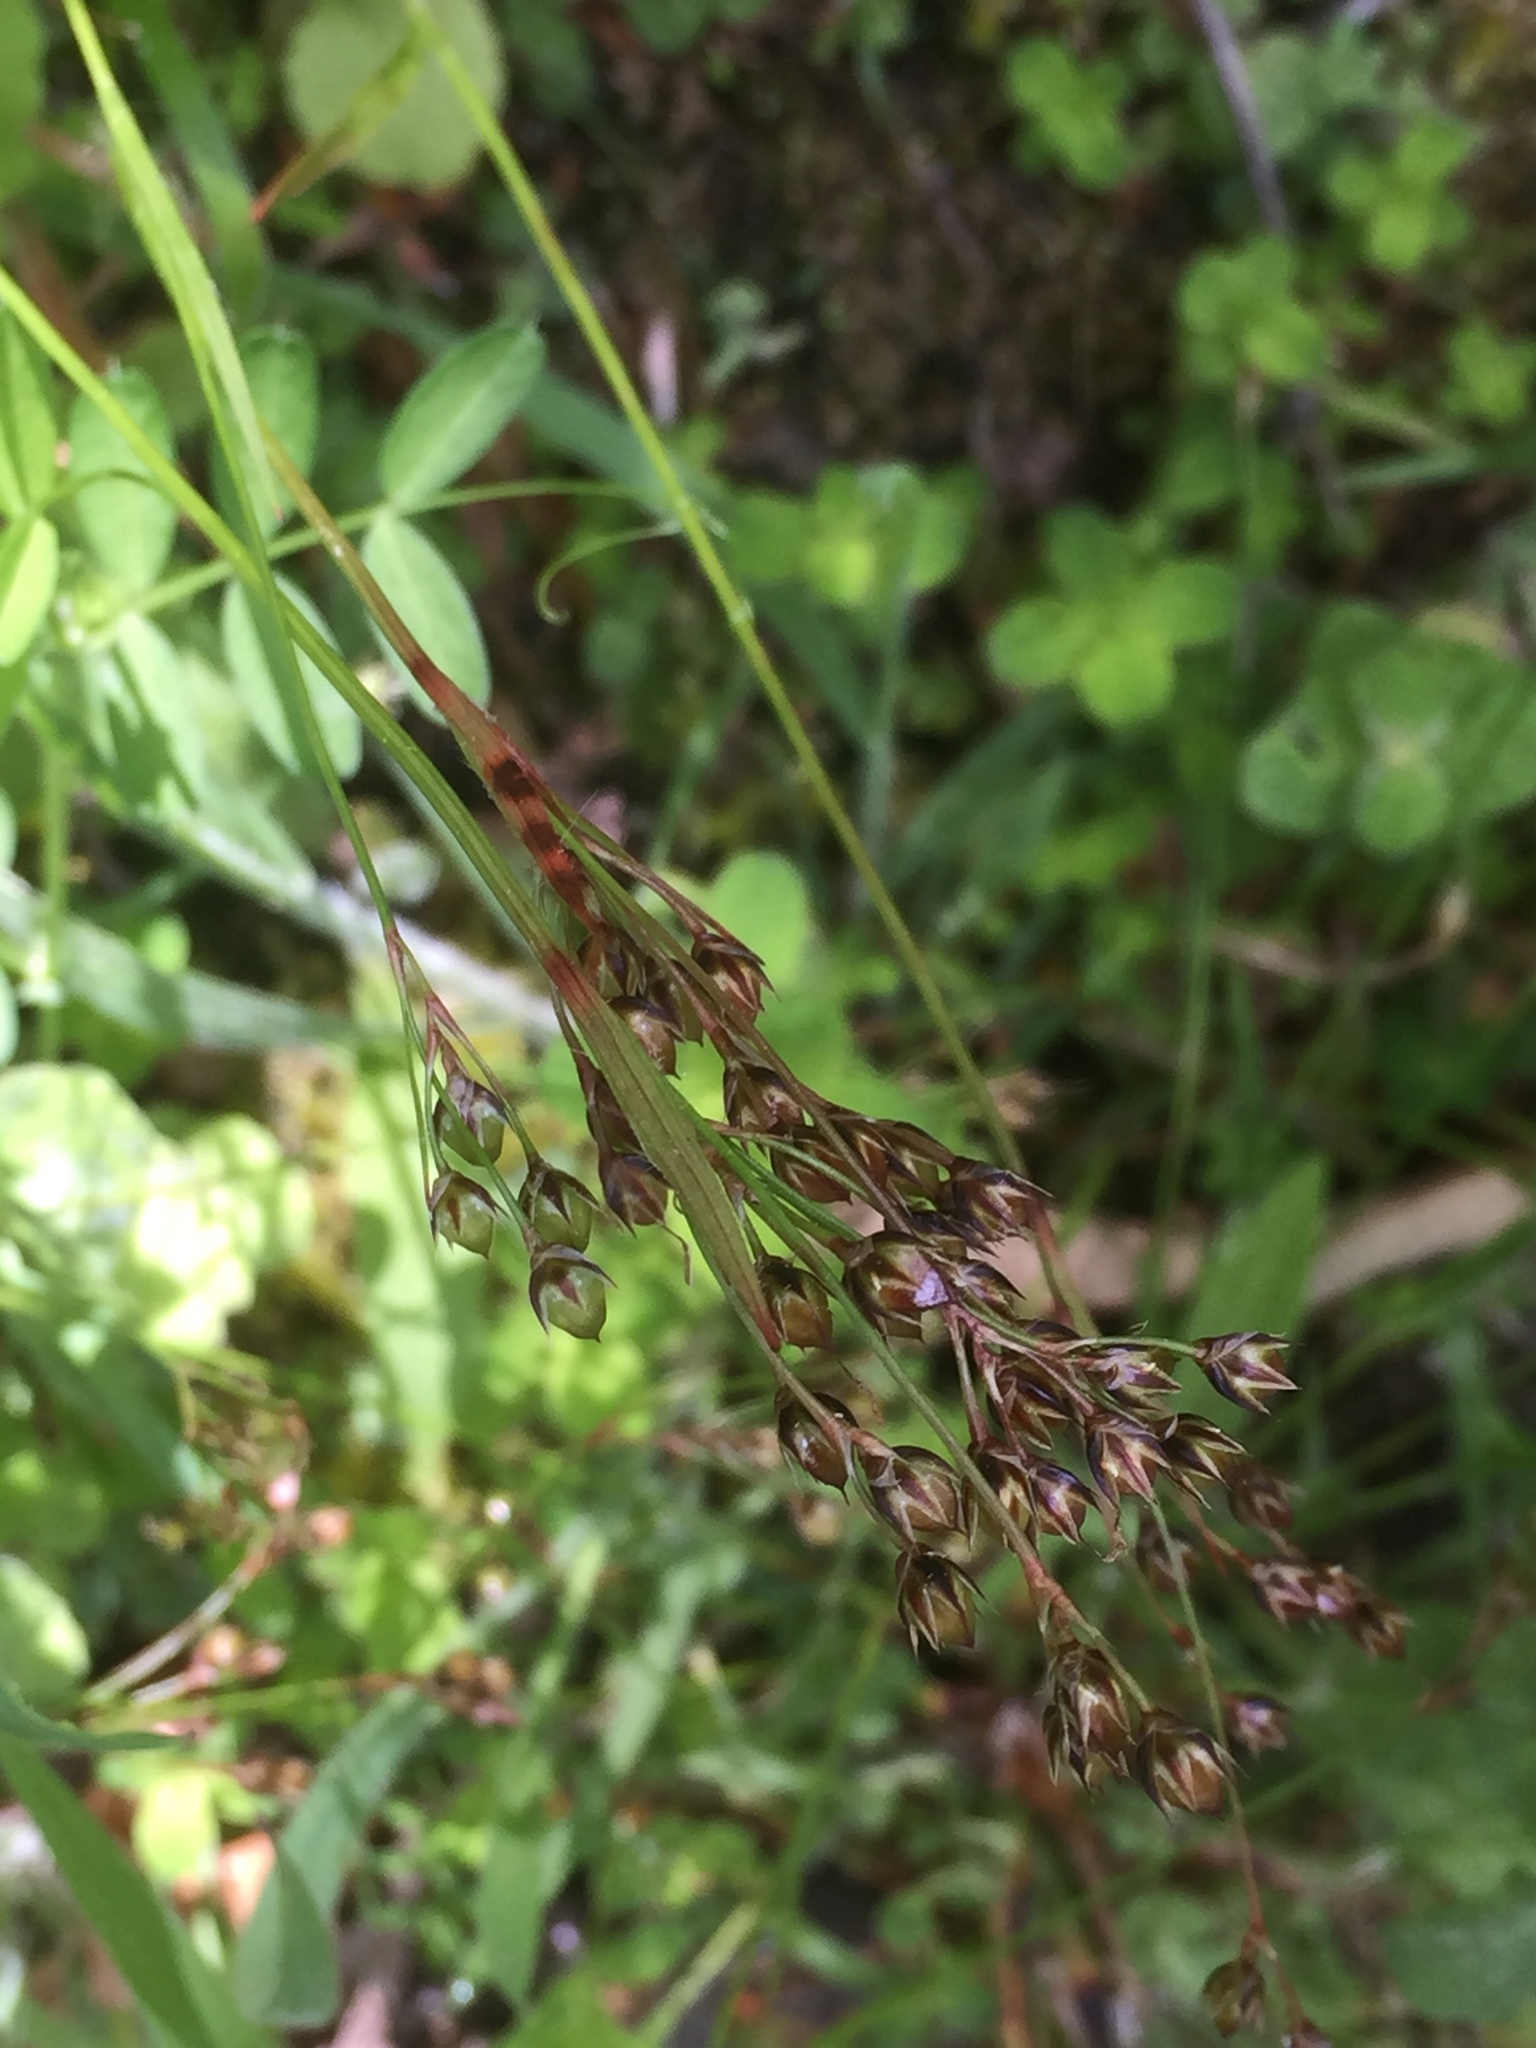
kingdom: Plantae
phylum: Tracheophyta
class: Liliopsida
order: Poales
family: Juncaceae
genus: Luzula
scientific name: Luzula forsteri
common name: Southern wood-rush
